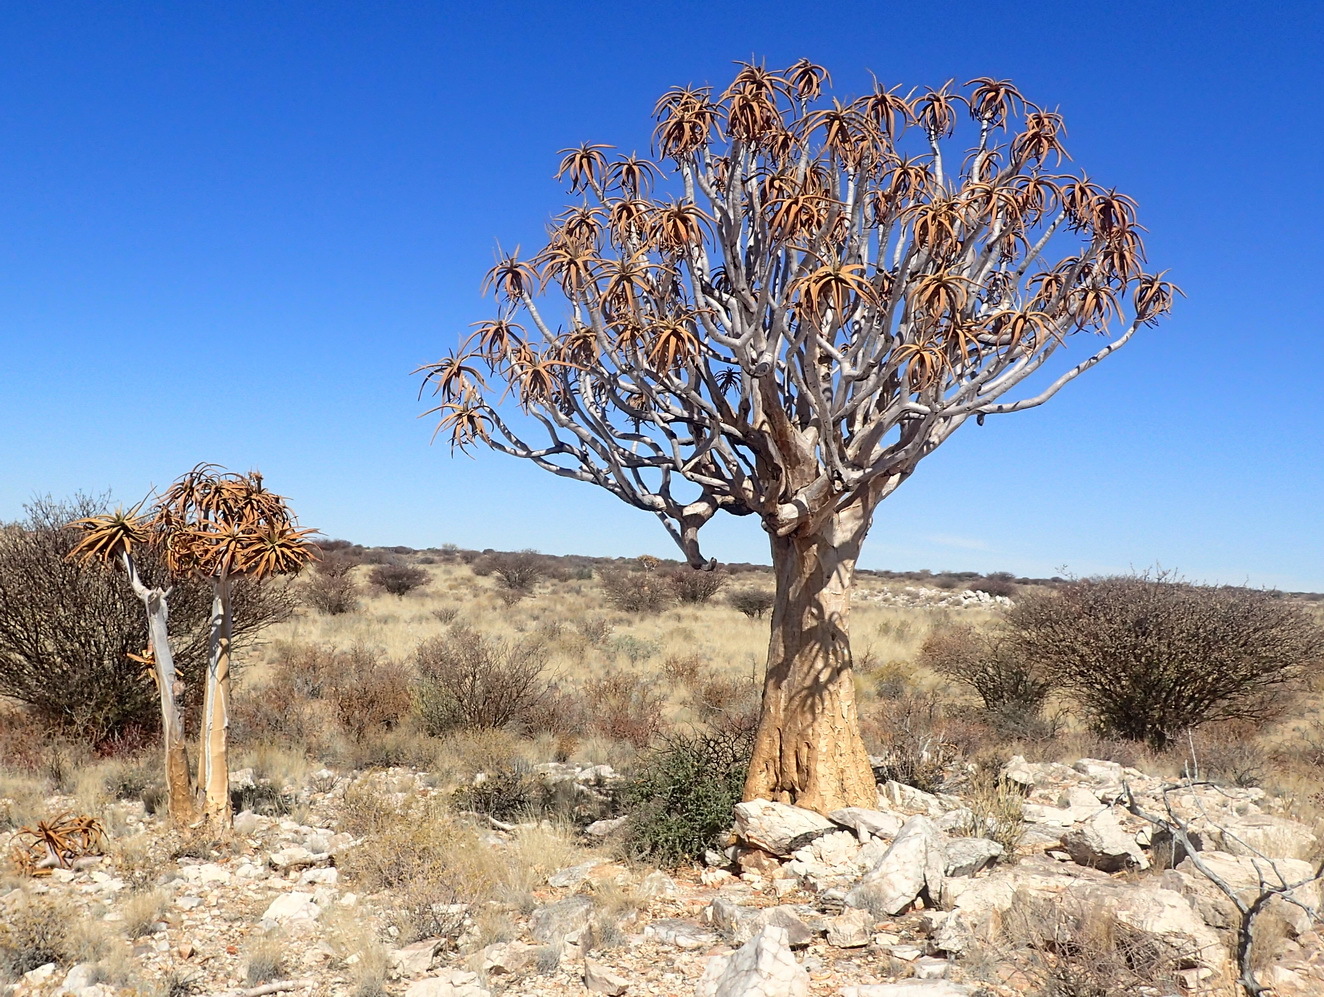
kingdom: Plantae
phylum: Tracheophyta
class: Liliopsida
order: Asparagales
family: Asphodelaceae
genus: Aloidendron
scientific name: Aloidendron dichotomum
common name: Quiver tree
